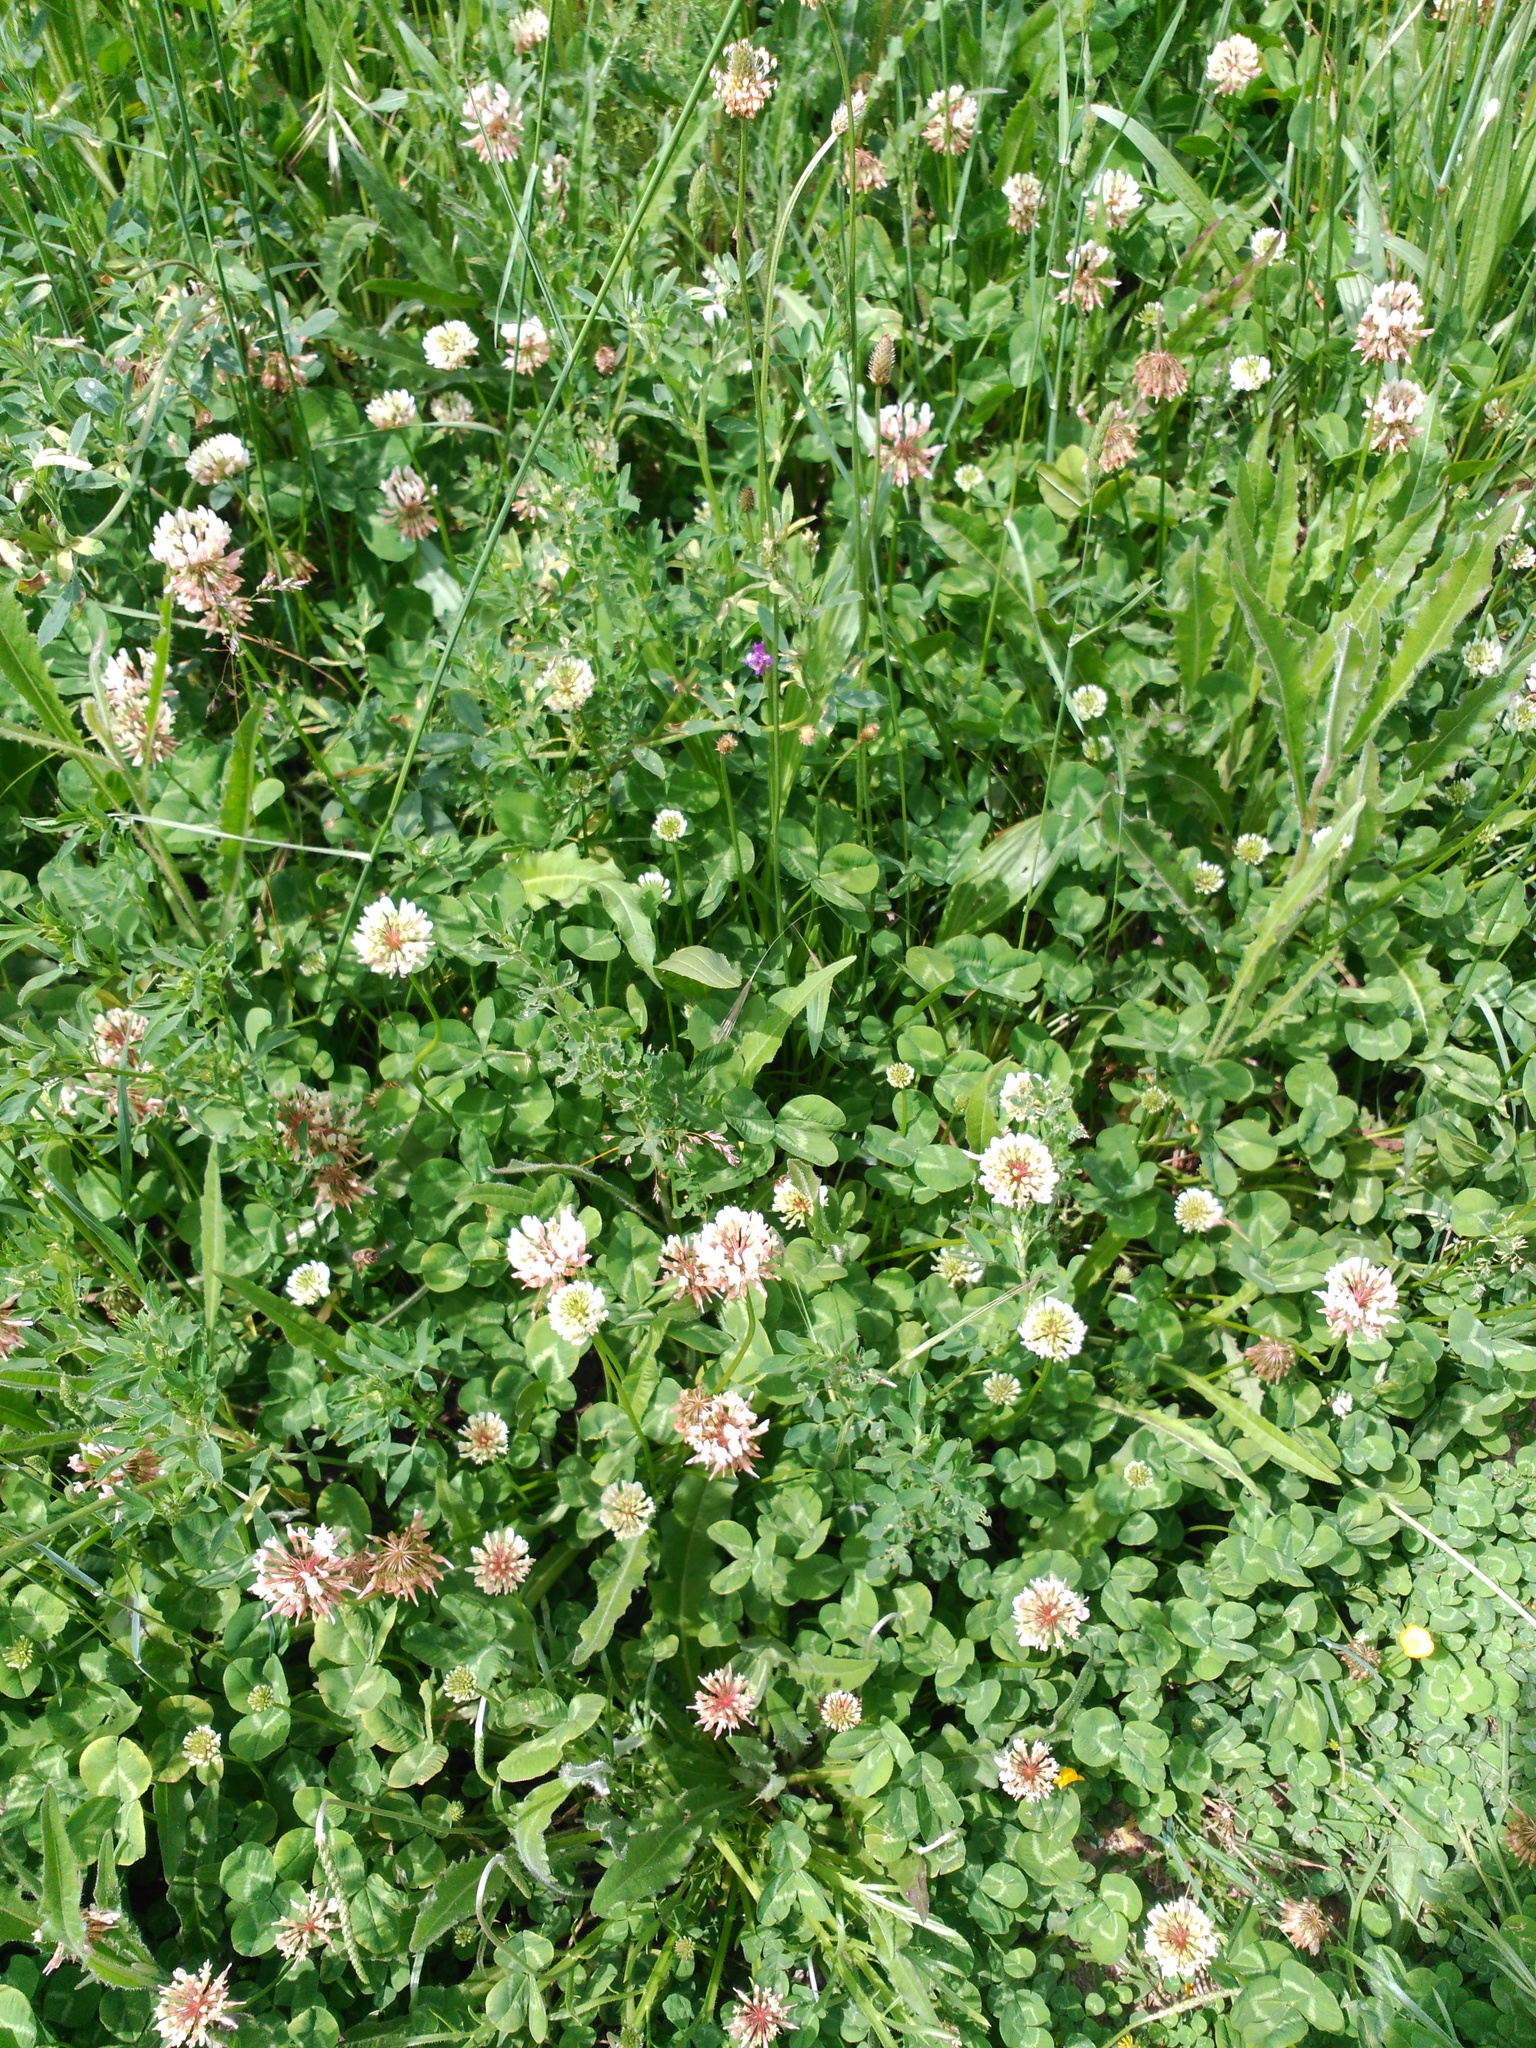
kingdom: Plantae
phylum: Tracheophyta
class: Magnoliopsida
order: Fabales
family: Fabaceae
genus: Trifolium
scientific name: Trifolium repens
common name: White clover
